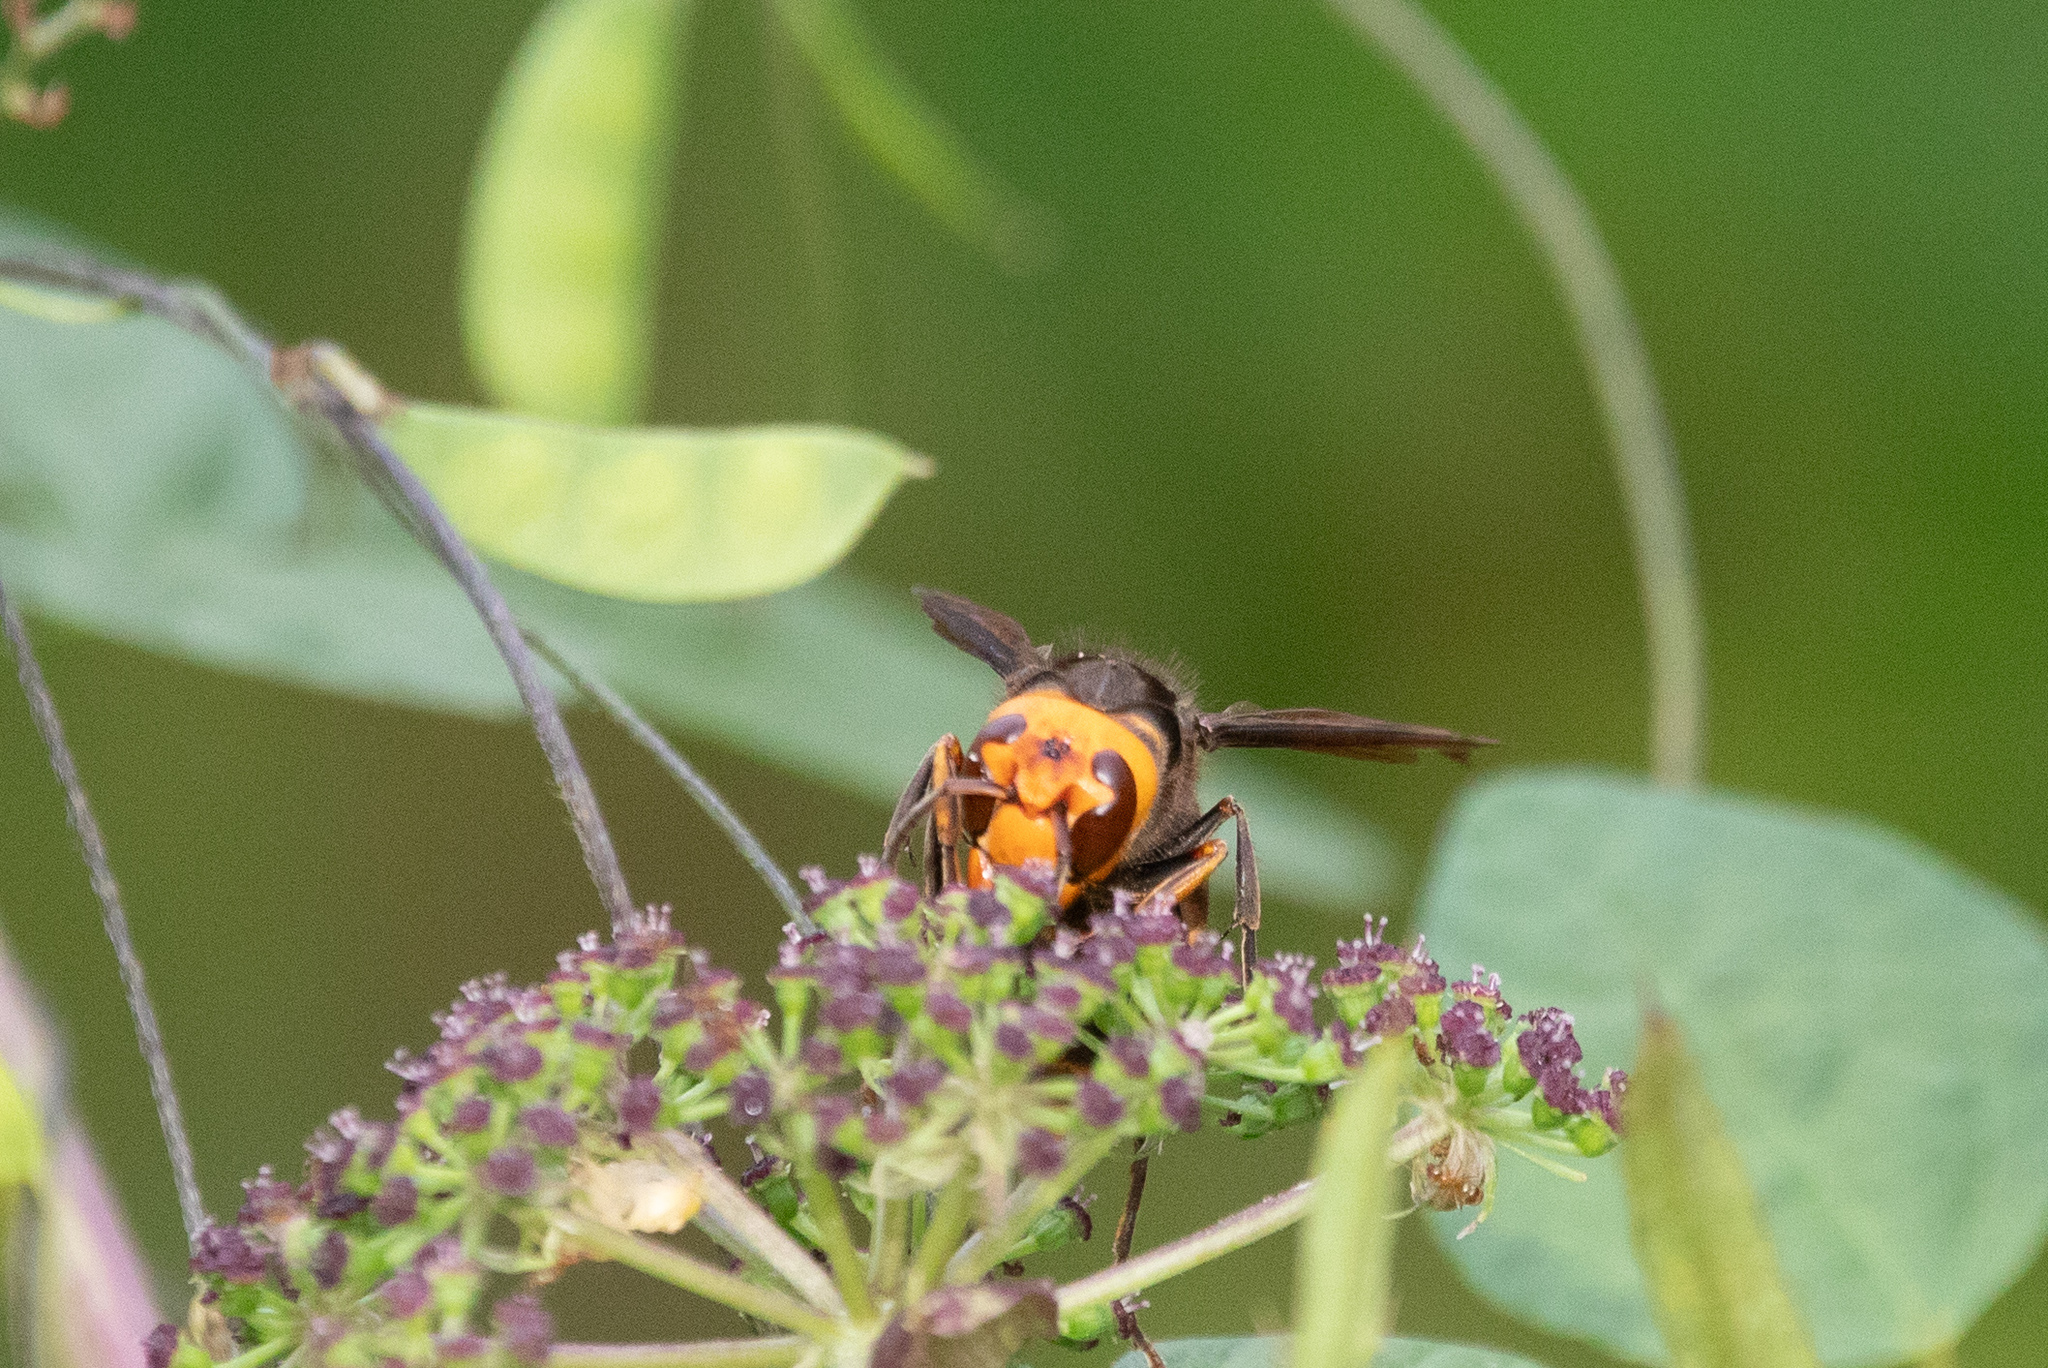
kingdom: Animalia
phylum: Arthropoda
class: Insecta
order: Hymenoptera
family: Vespidae
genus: Vespa
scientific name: Vespa analis
